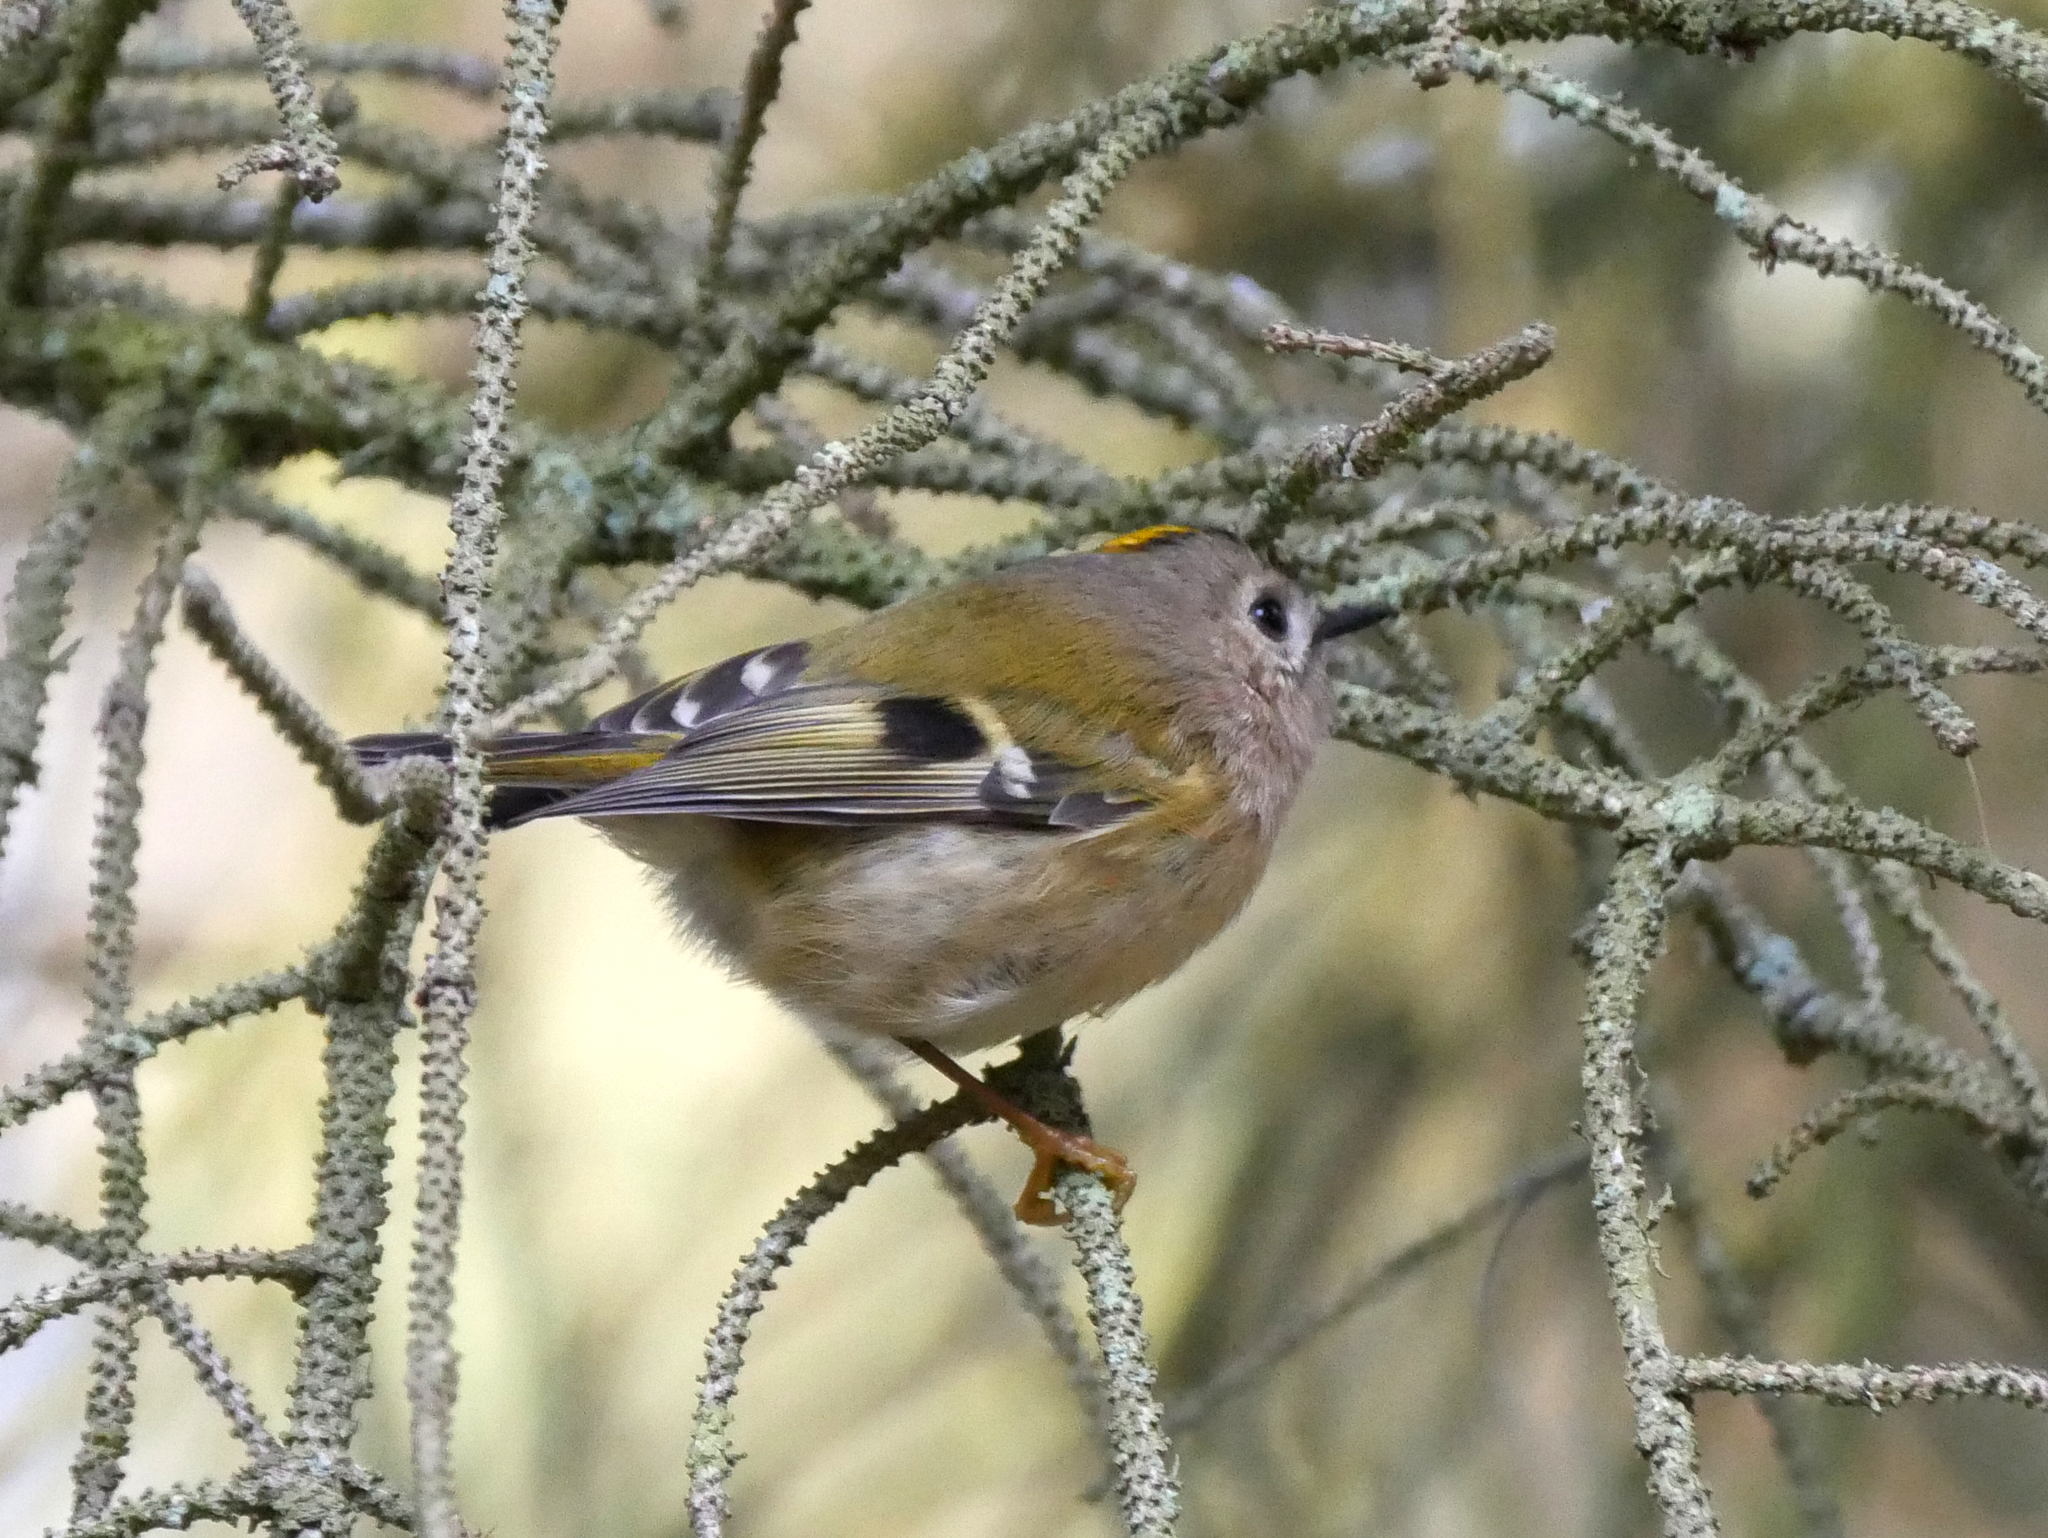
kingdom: Animalia
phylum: Chordata
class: Aves
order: Passeriformes
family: Regulidae
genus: Regulus
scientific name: Regulus regulus
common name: Goldcrest
